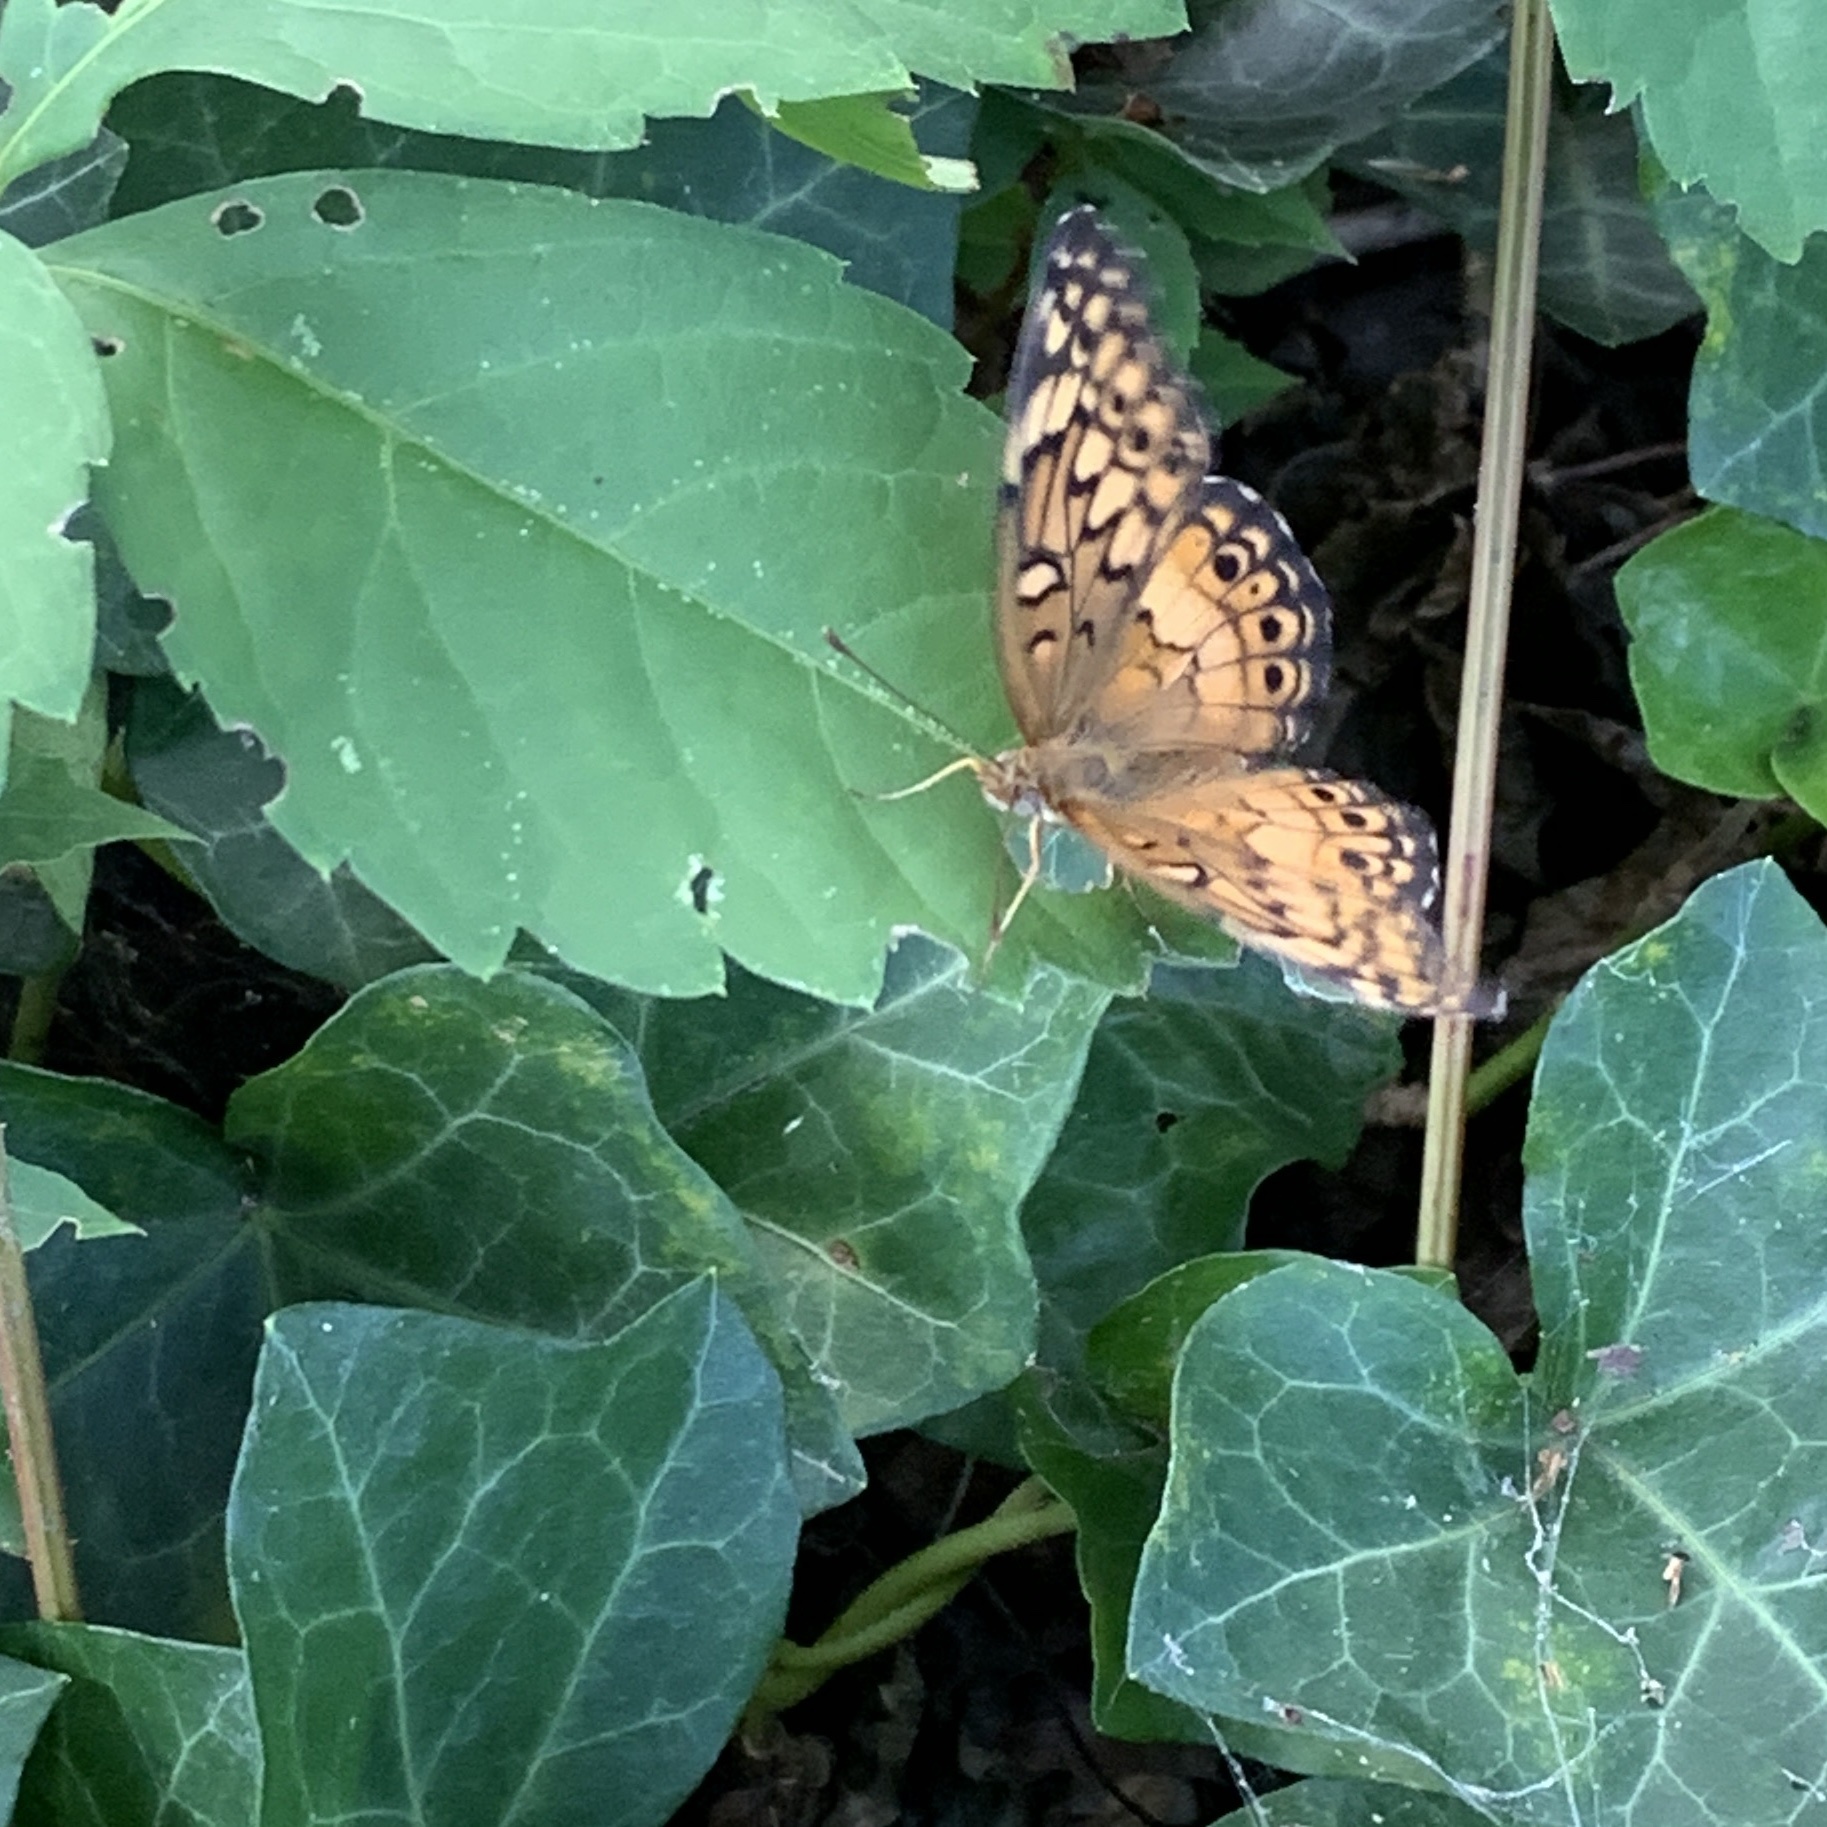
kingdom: Animalia
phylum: Arthropoda
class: Insecta
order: Lepidoptera
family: Nymphalidae
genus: Euptoieta
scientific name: Euptoieta claudia
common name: Variegated fritillary
